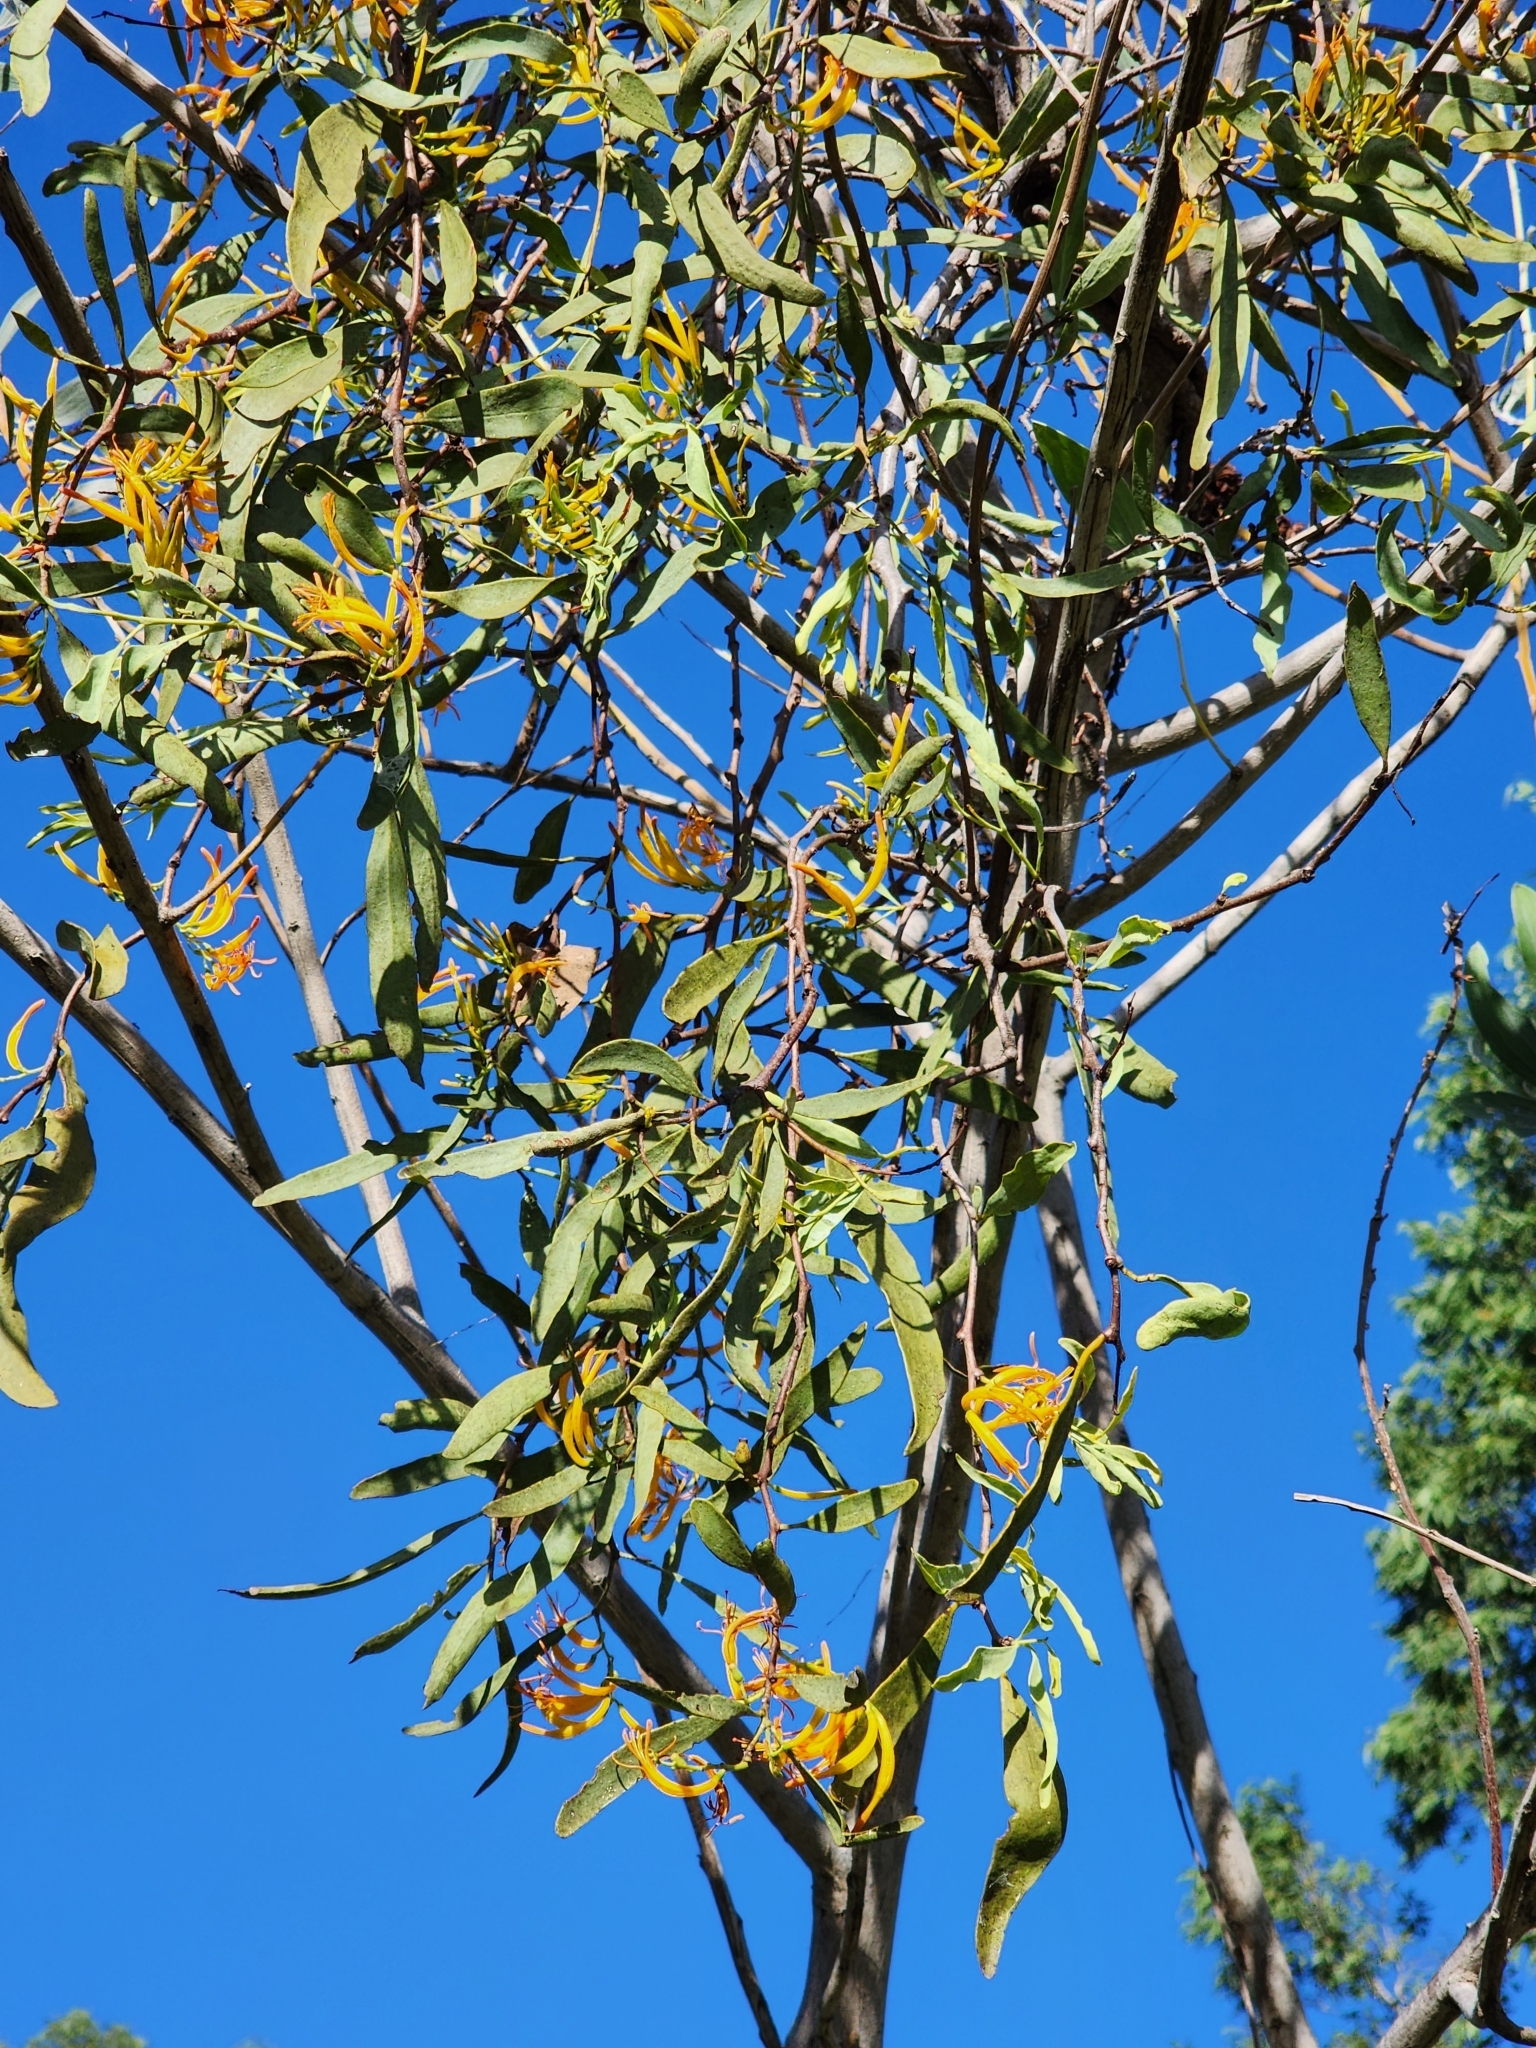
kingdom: Plantae
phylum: Tracheophyta
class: Magnoliopsida
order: Santalales
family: Loranthaceae
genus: Dendrophthoe
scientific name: Dendrophthoe glabrescens
